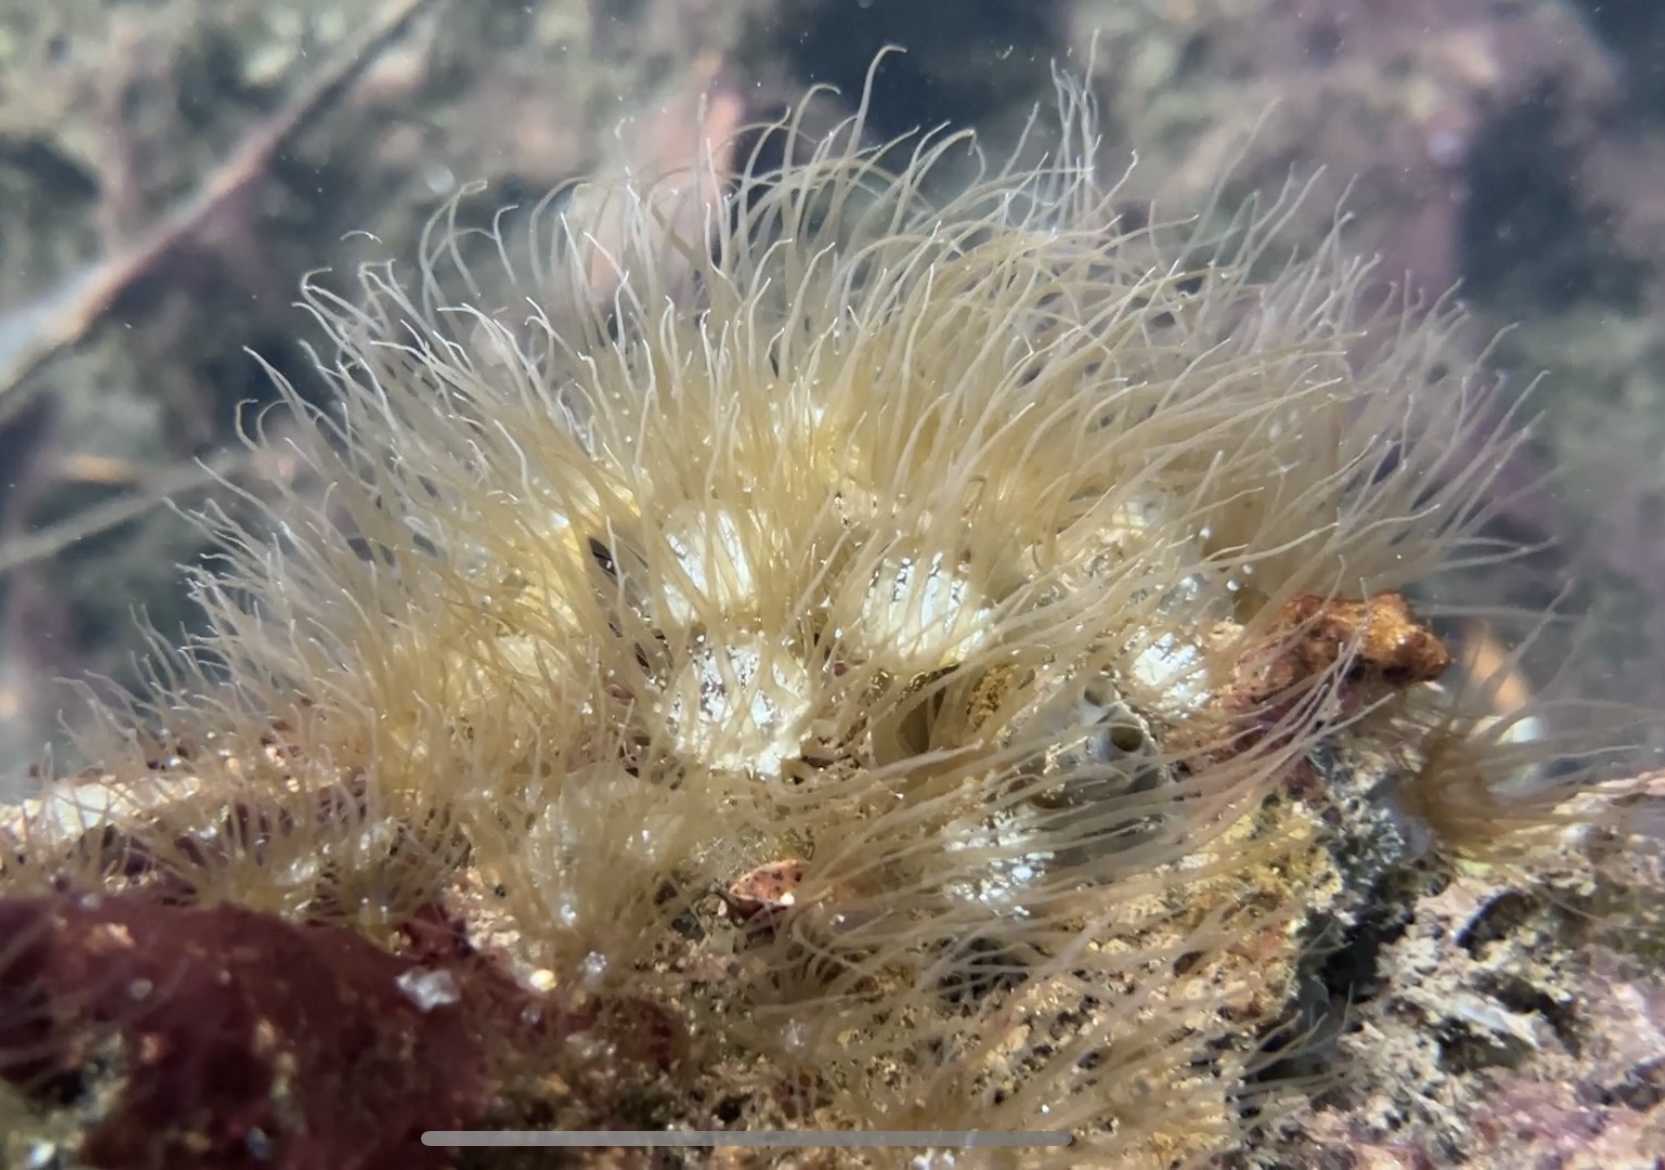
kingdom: Animalia
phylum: Cnidaria
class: Anthozoa
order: Actiniaria
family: Aiptasiidae
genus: Exaiptasia
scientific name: Exaiptasia diaphana
